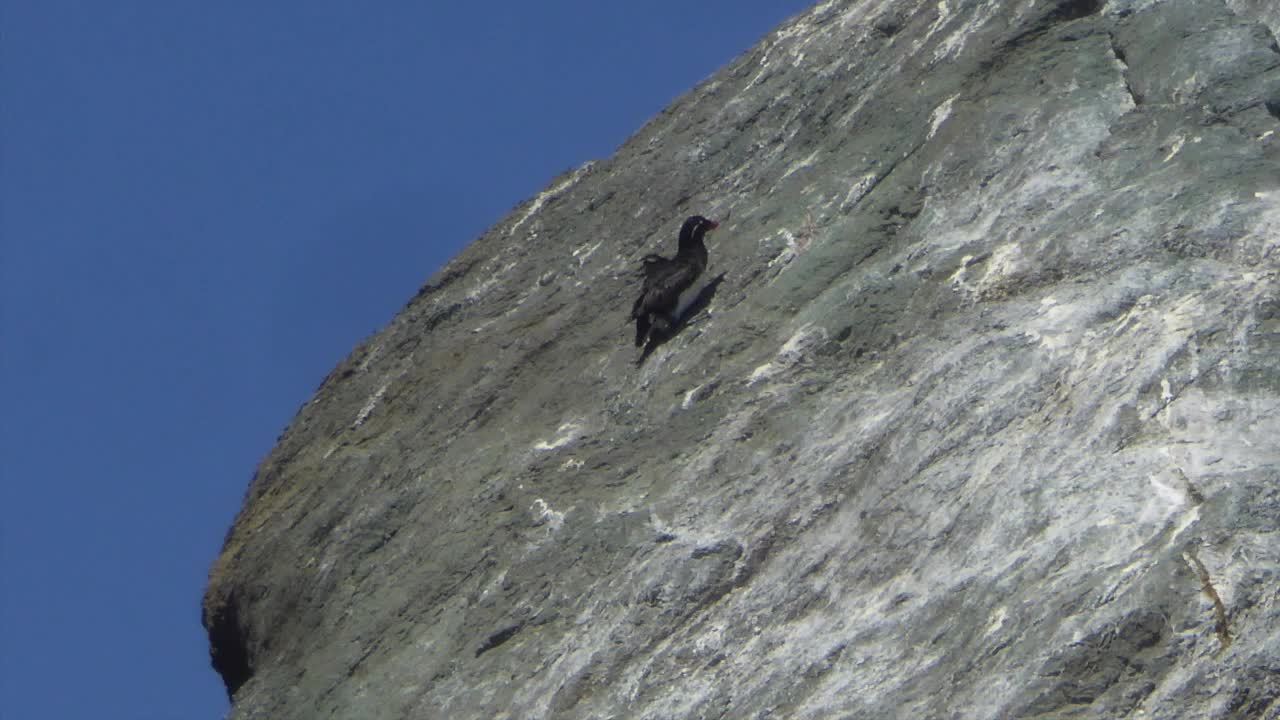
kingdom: Animalia
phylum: Chordata
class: Aves
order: Charadriiformes
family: Alcidae
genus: Aethia
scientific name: Aethia psittacula
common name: Parakeet auklet
